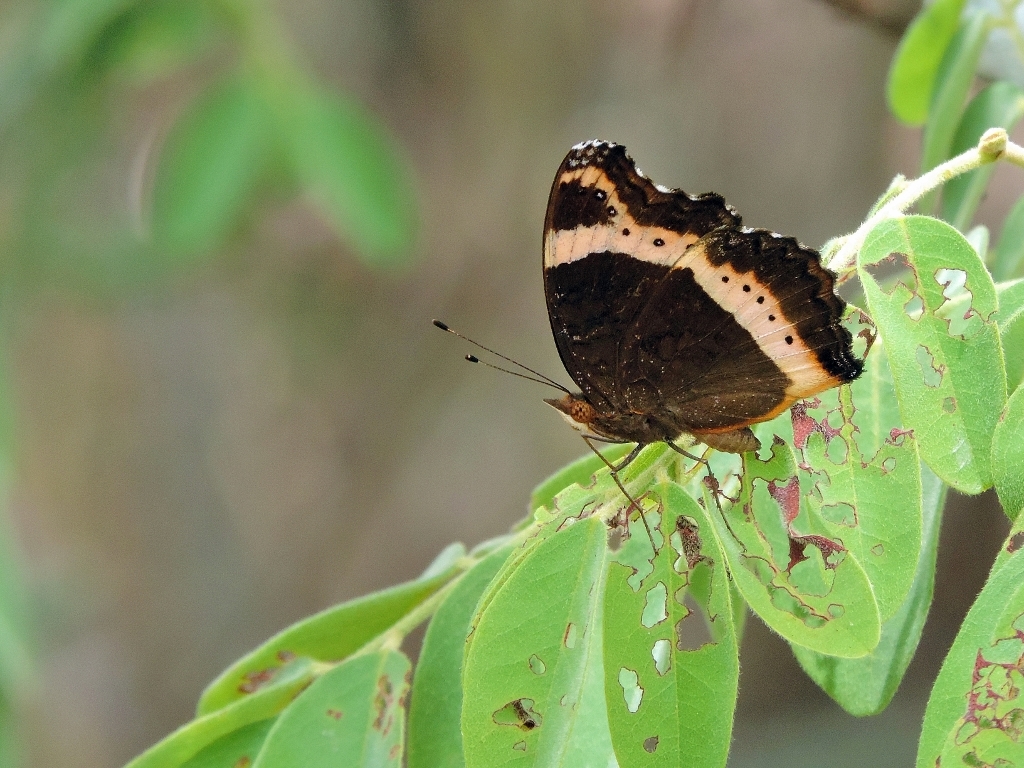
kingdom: Animalia
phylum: Arthropoda
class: Insecta
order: Lepidoptera
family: Nymphalidae
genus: Junonia
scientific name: Junonia archesia
